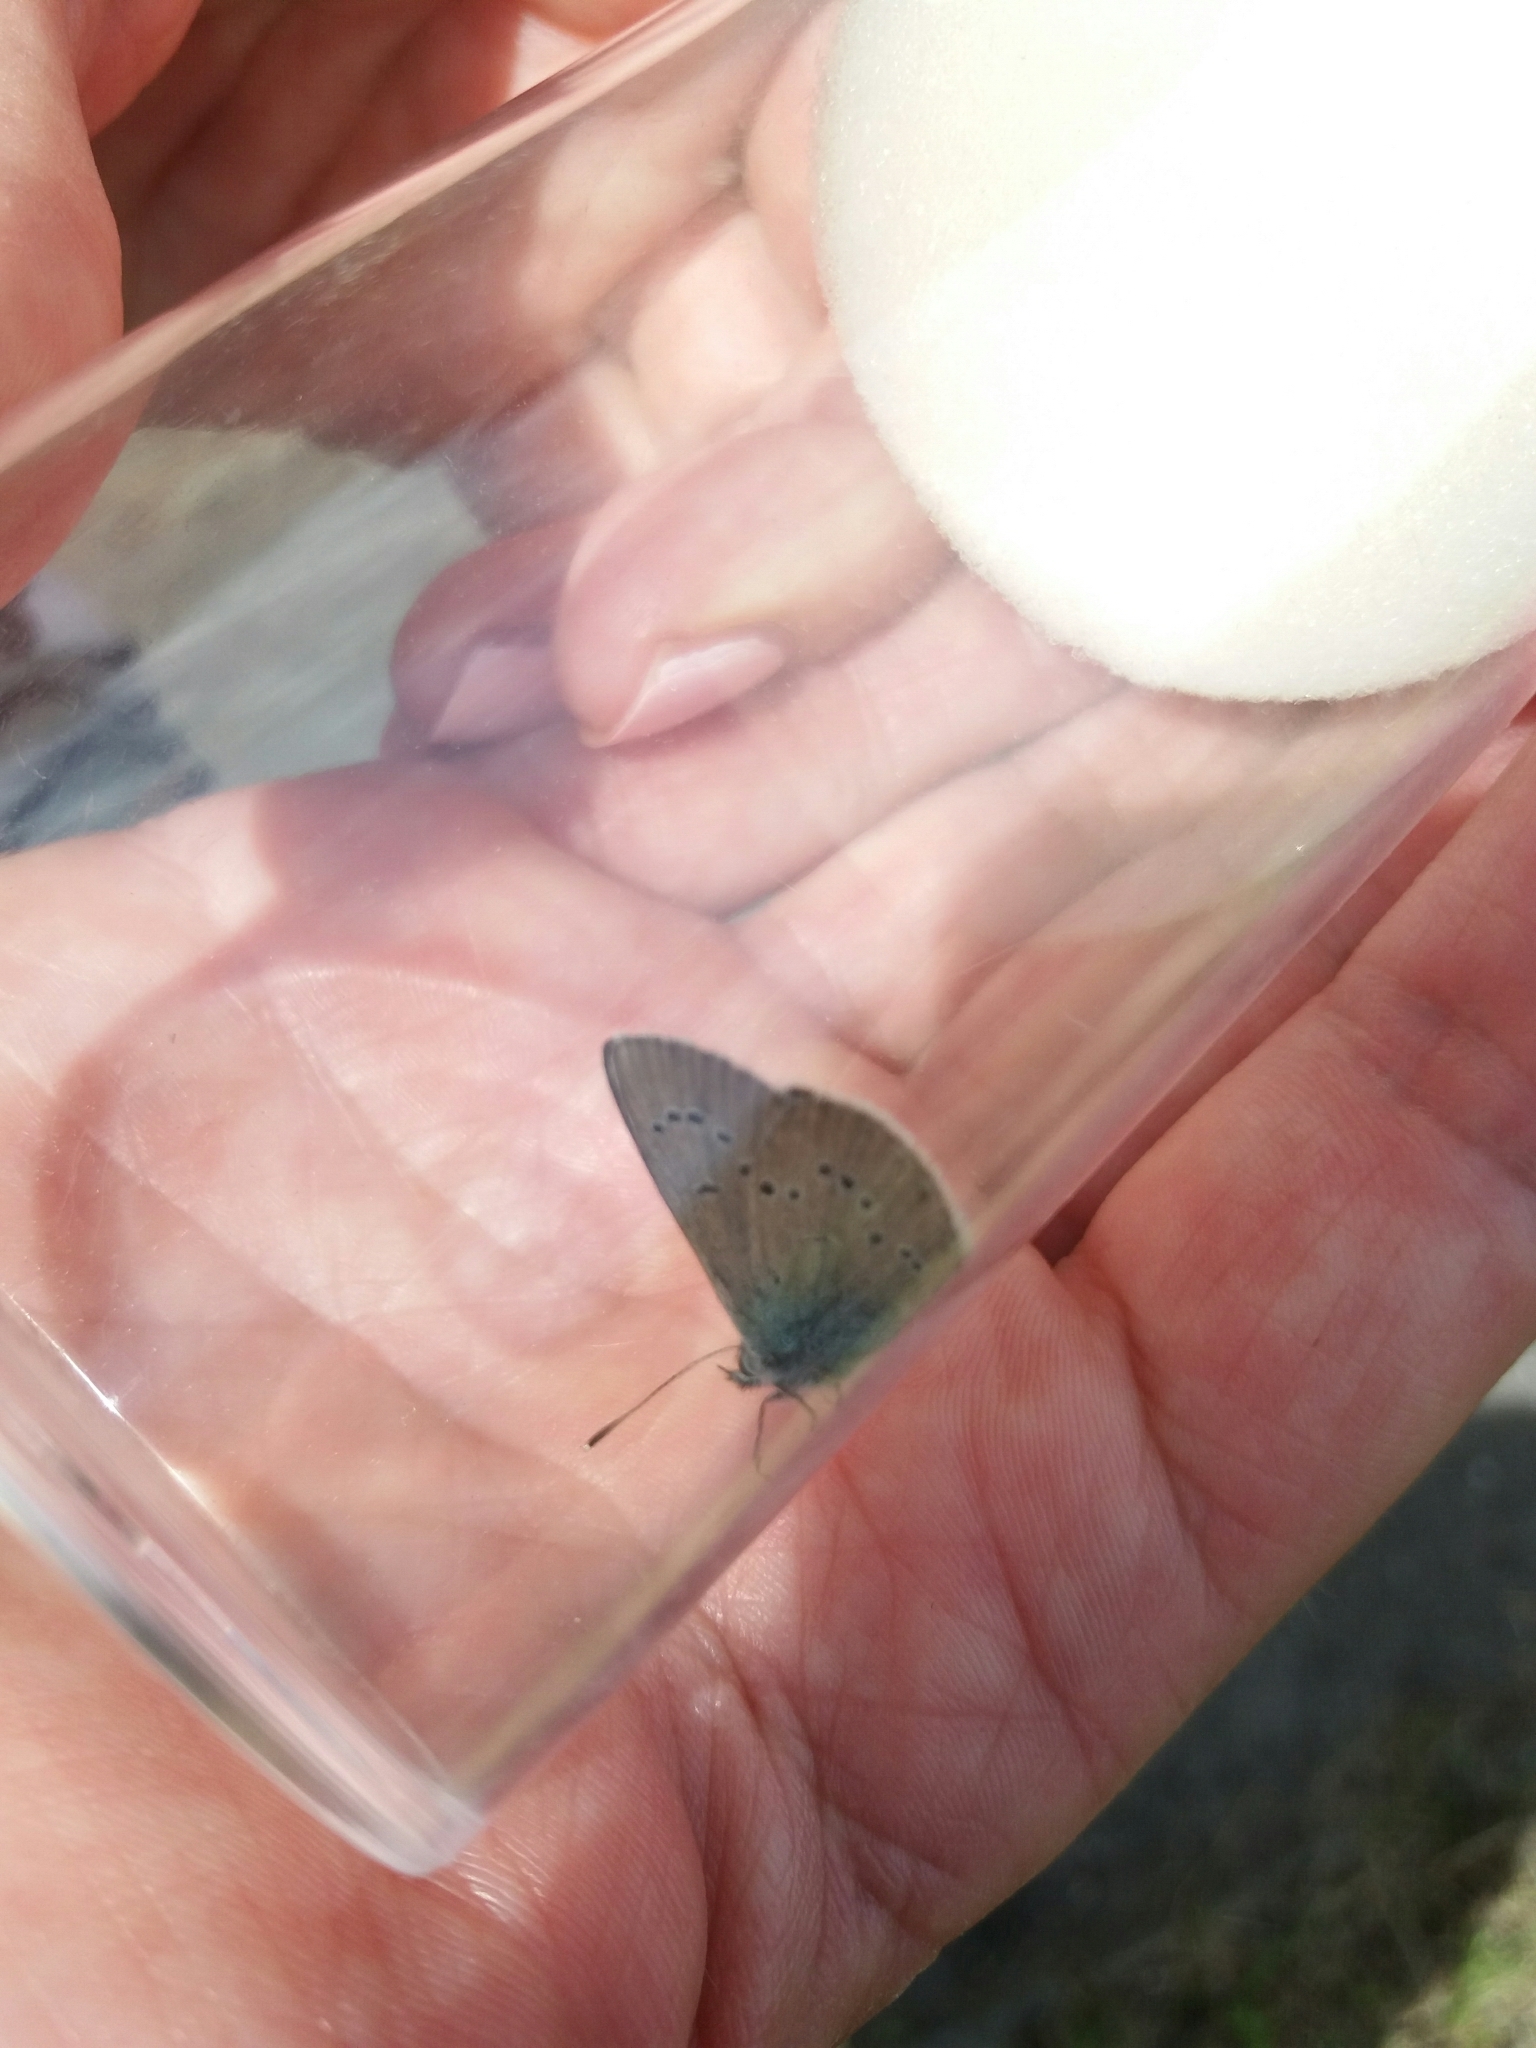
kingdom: Animalia
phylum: Arthropoda
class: Insecta
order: Lepidoptera
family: Lycaenidae
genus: Cyaniris
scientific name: Cyaniris semiargus
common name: Mazarine blue
